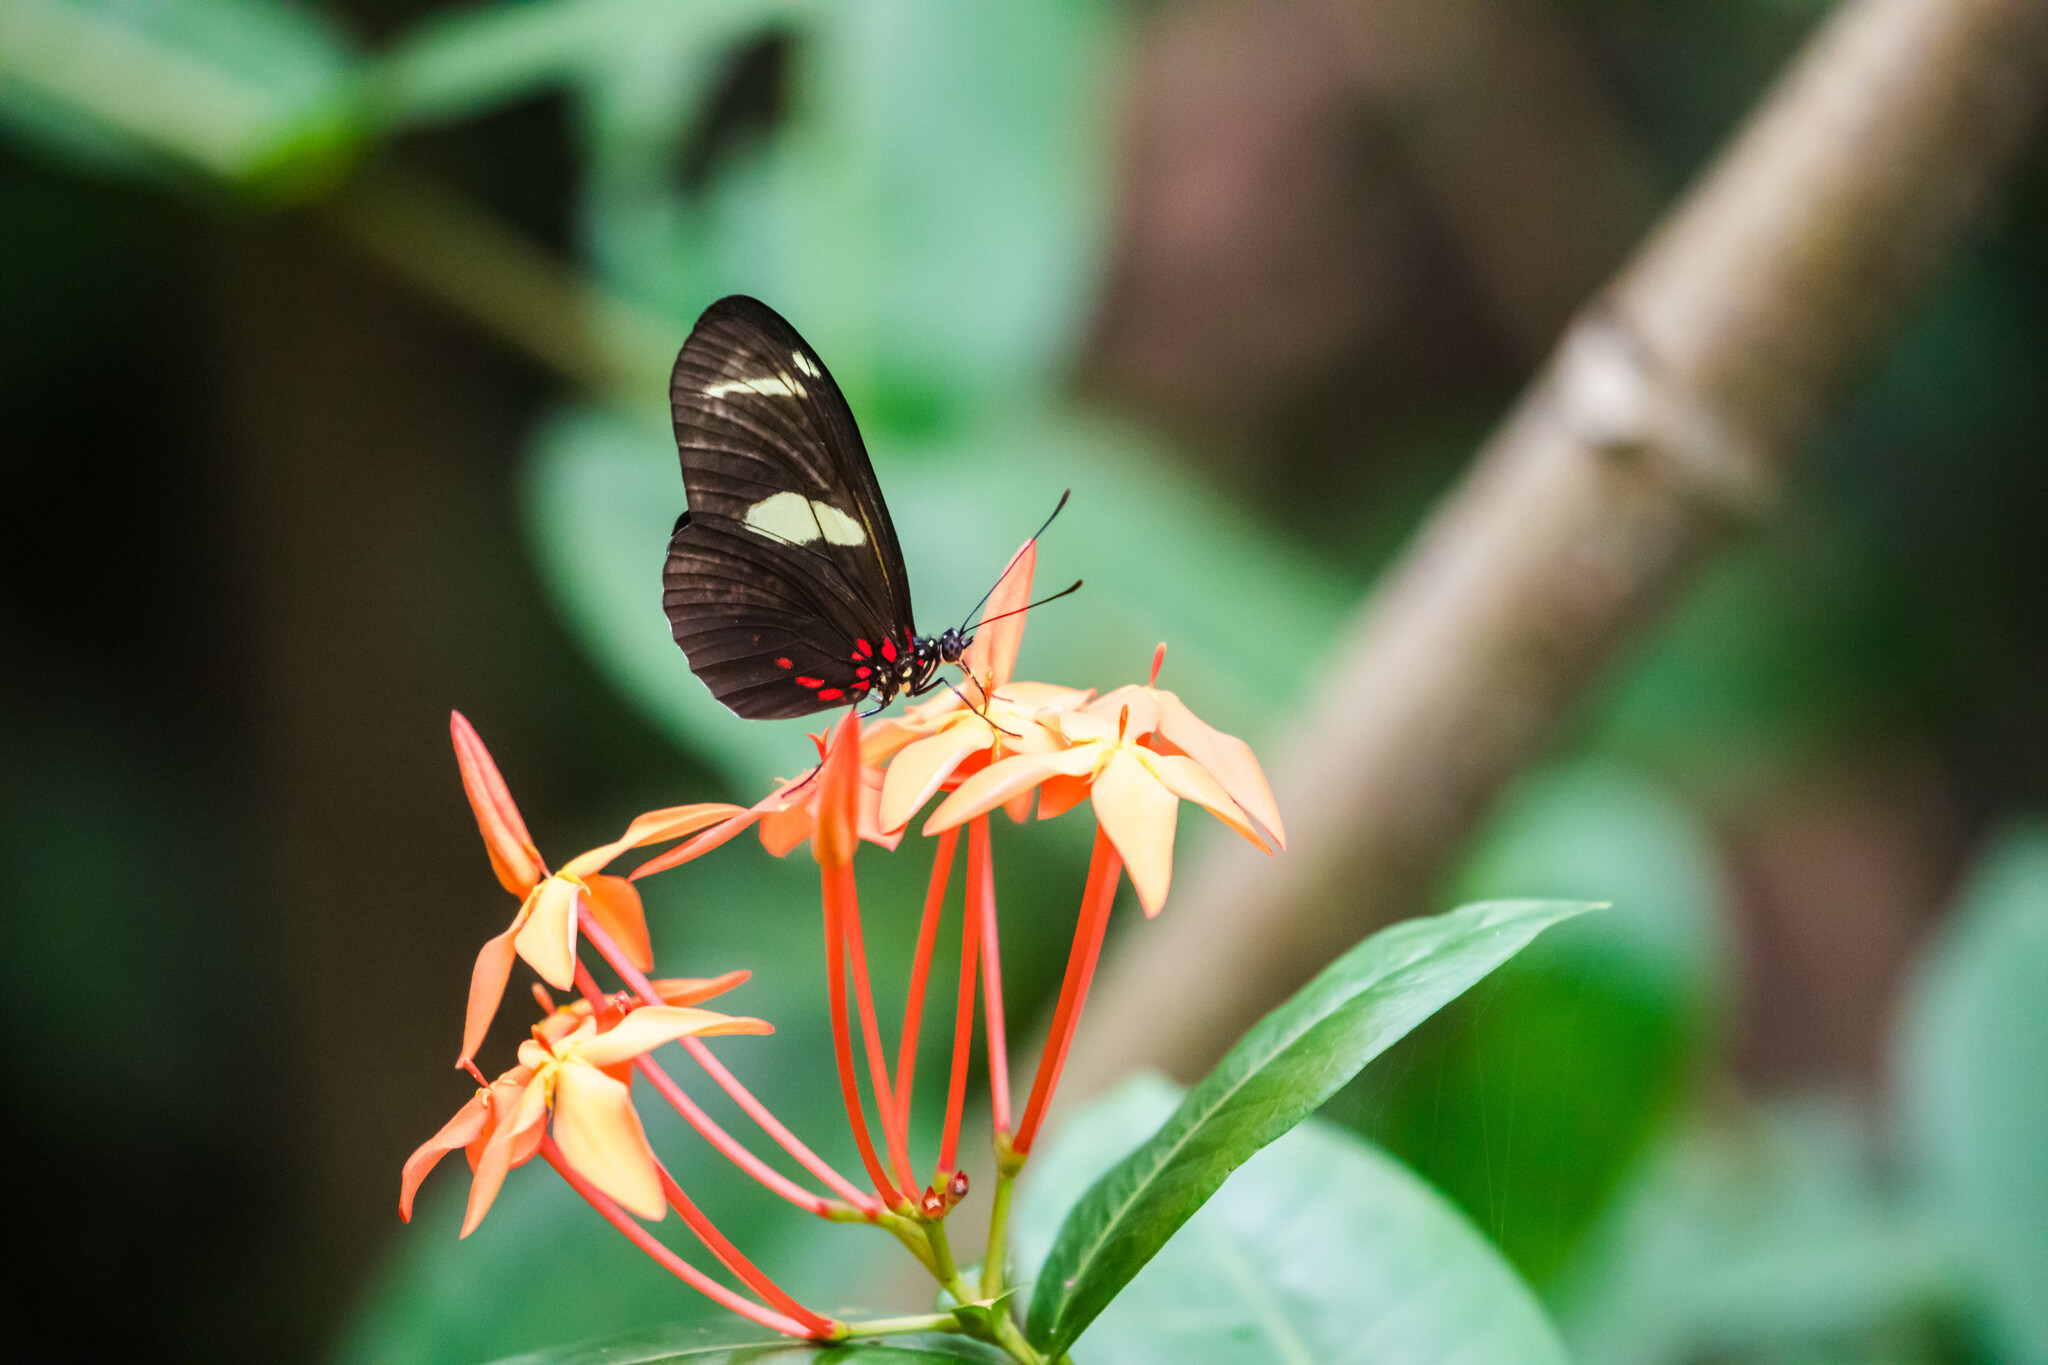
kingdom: Animalia
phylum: Arthropoda
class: Insecta
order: Lepidoptera
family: Nymphalidae
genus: Heliconius
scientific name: Heliconius sara
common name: Sara longwing
